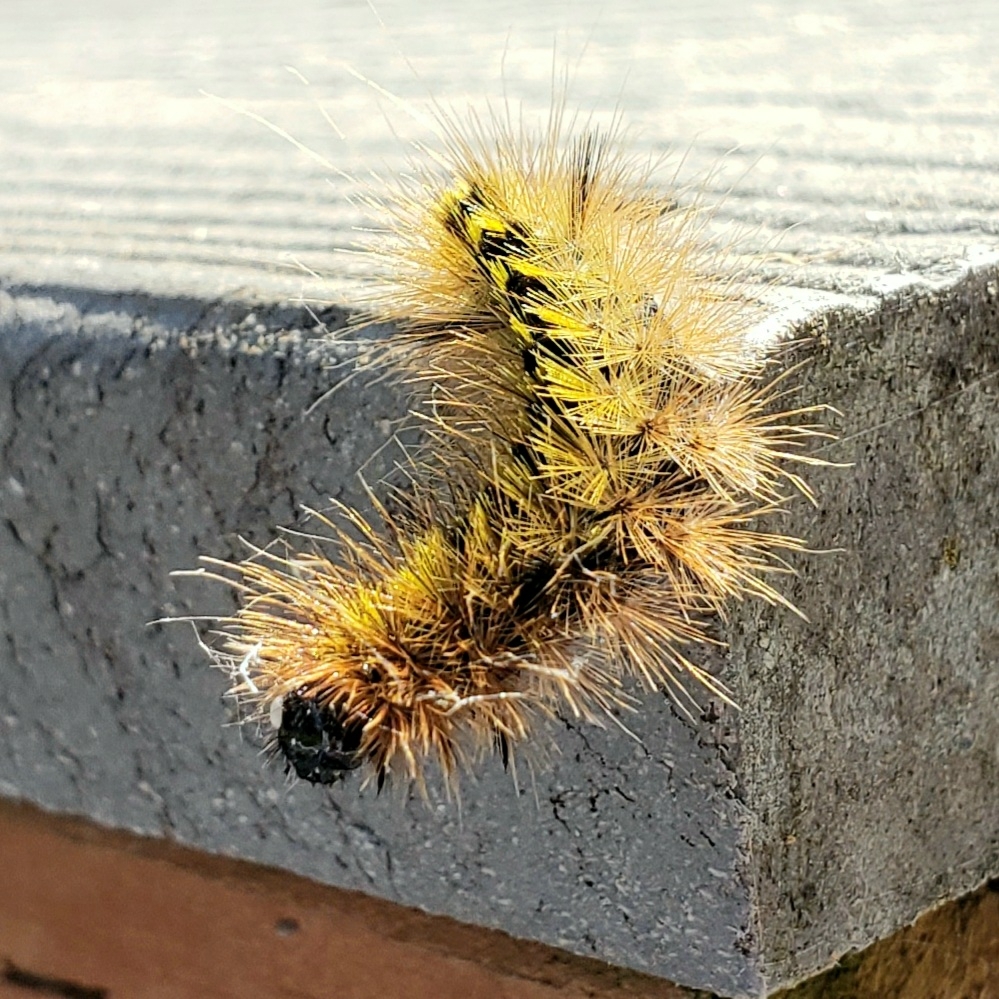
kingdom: Animalia
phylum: Arthropoda
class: Insecta
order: Lepidoptera
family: Erebidae
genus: Lophocampa
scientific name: Lophocampa argentata
